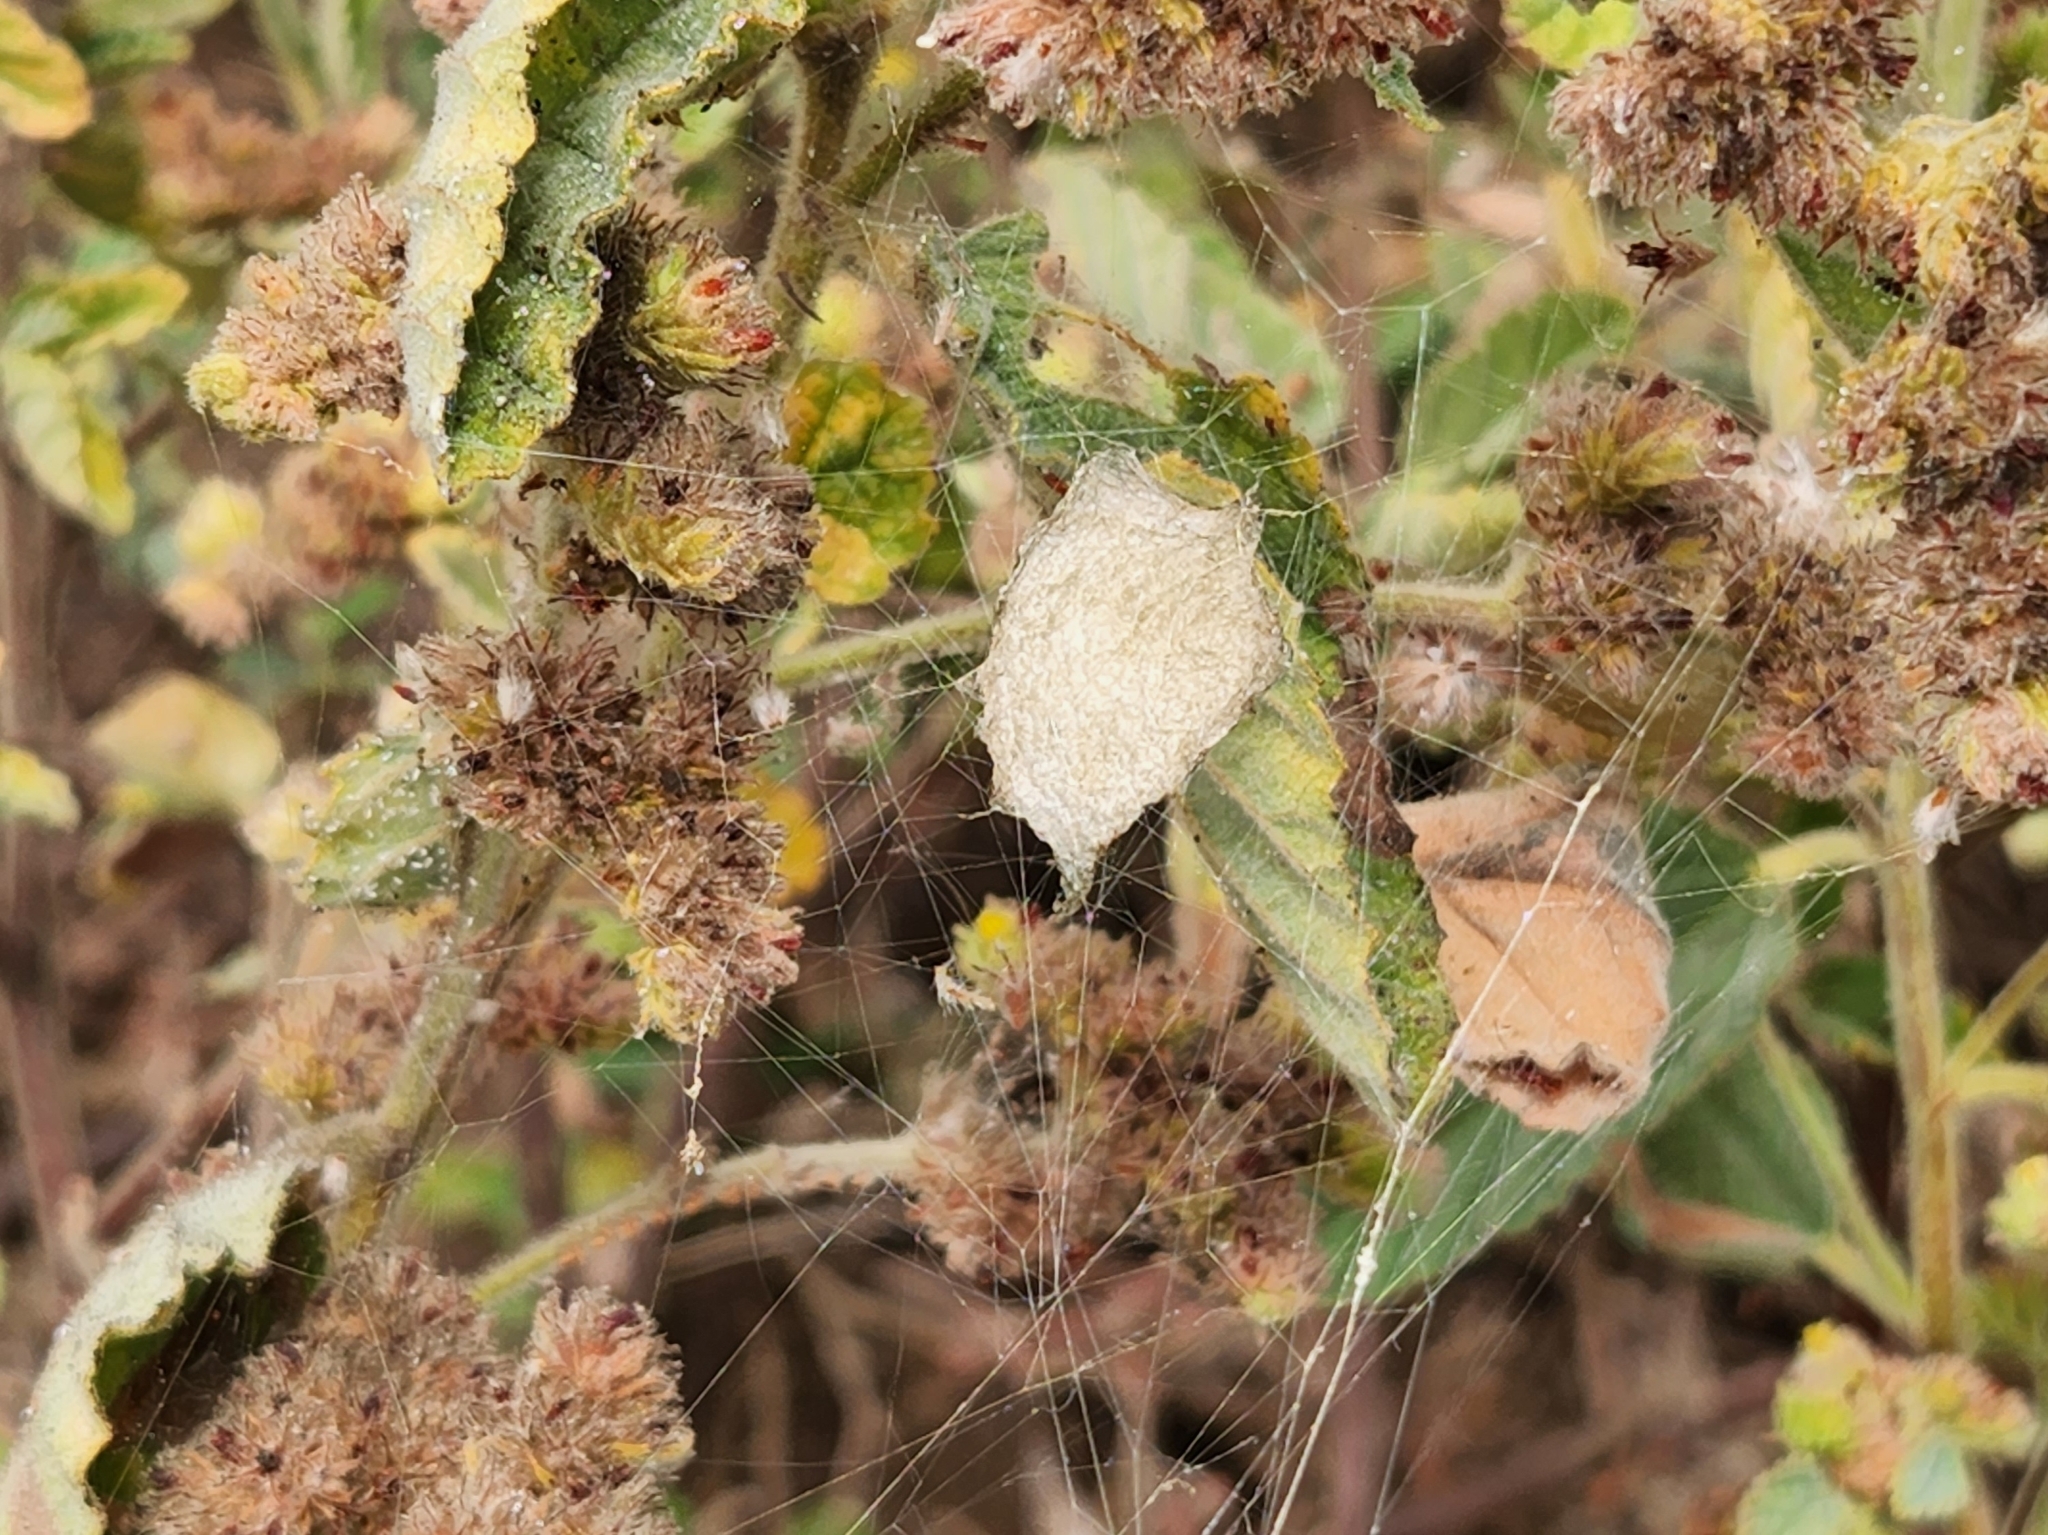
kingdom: Animalia
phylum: Arthropoda
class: Arachnida
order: Araneae
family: Araneidae
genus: Argiope
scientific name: Argiope argentata
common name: Orb weavers
